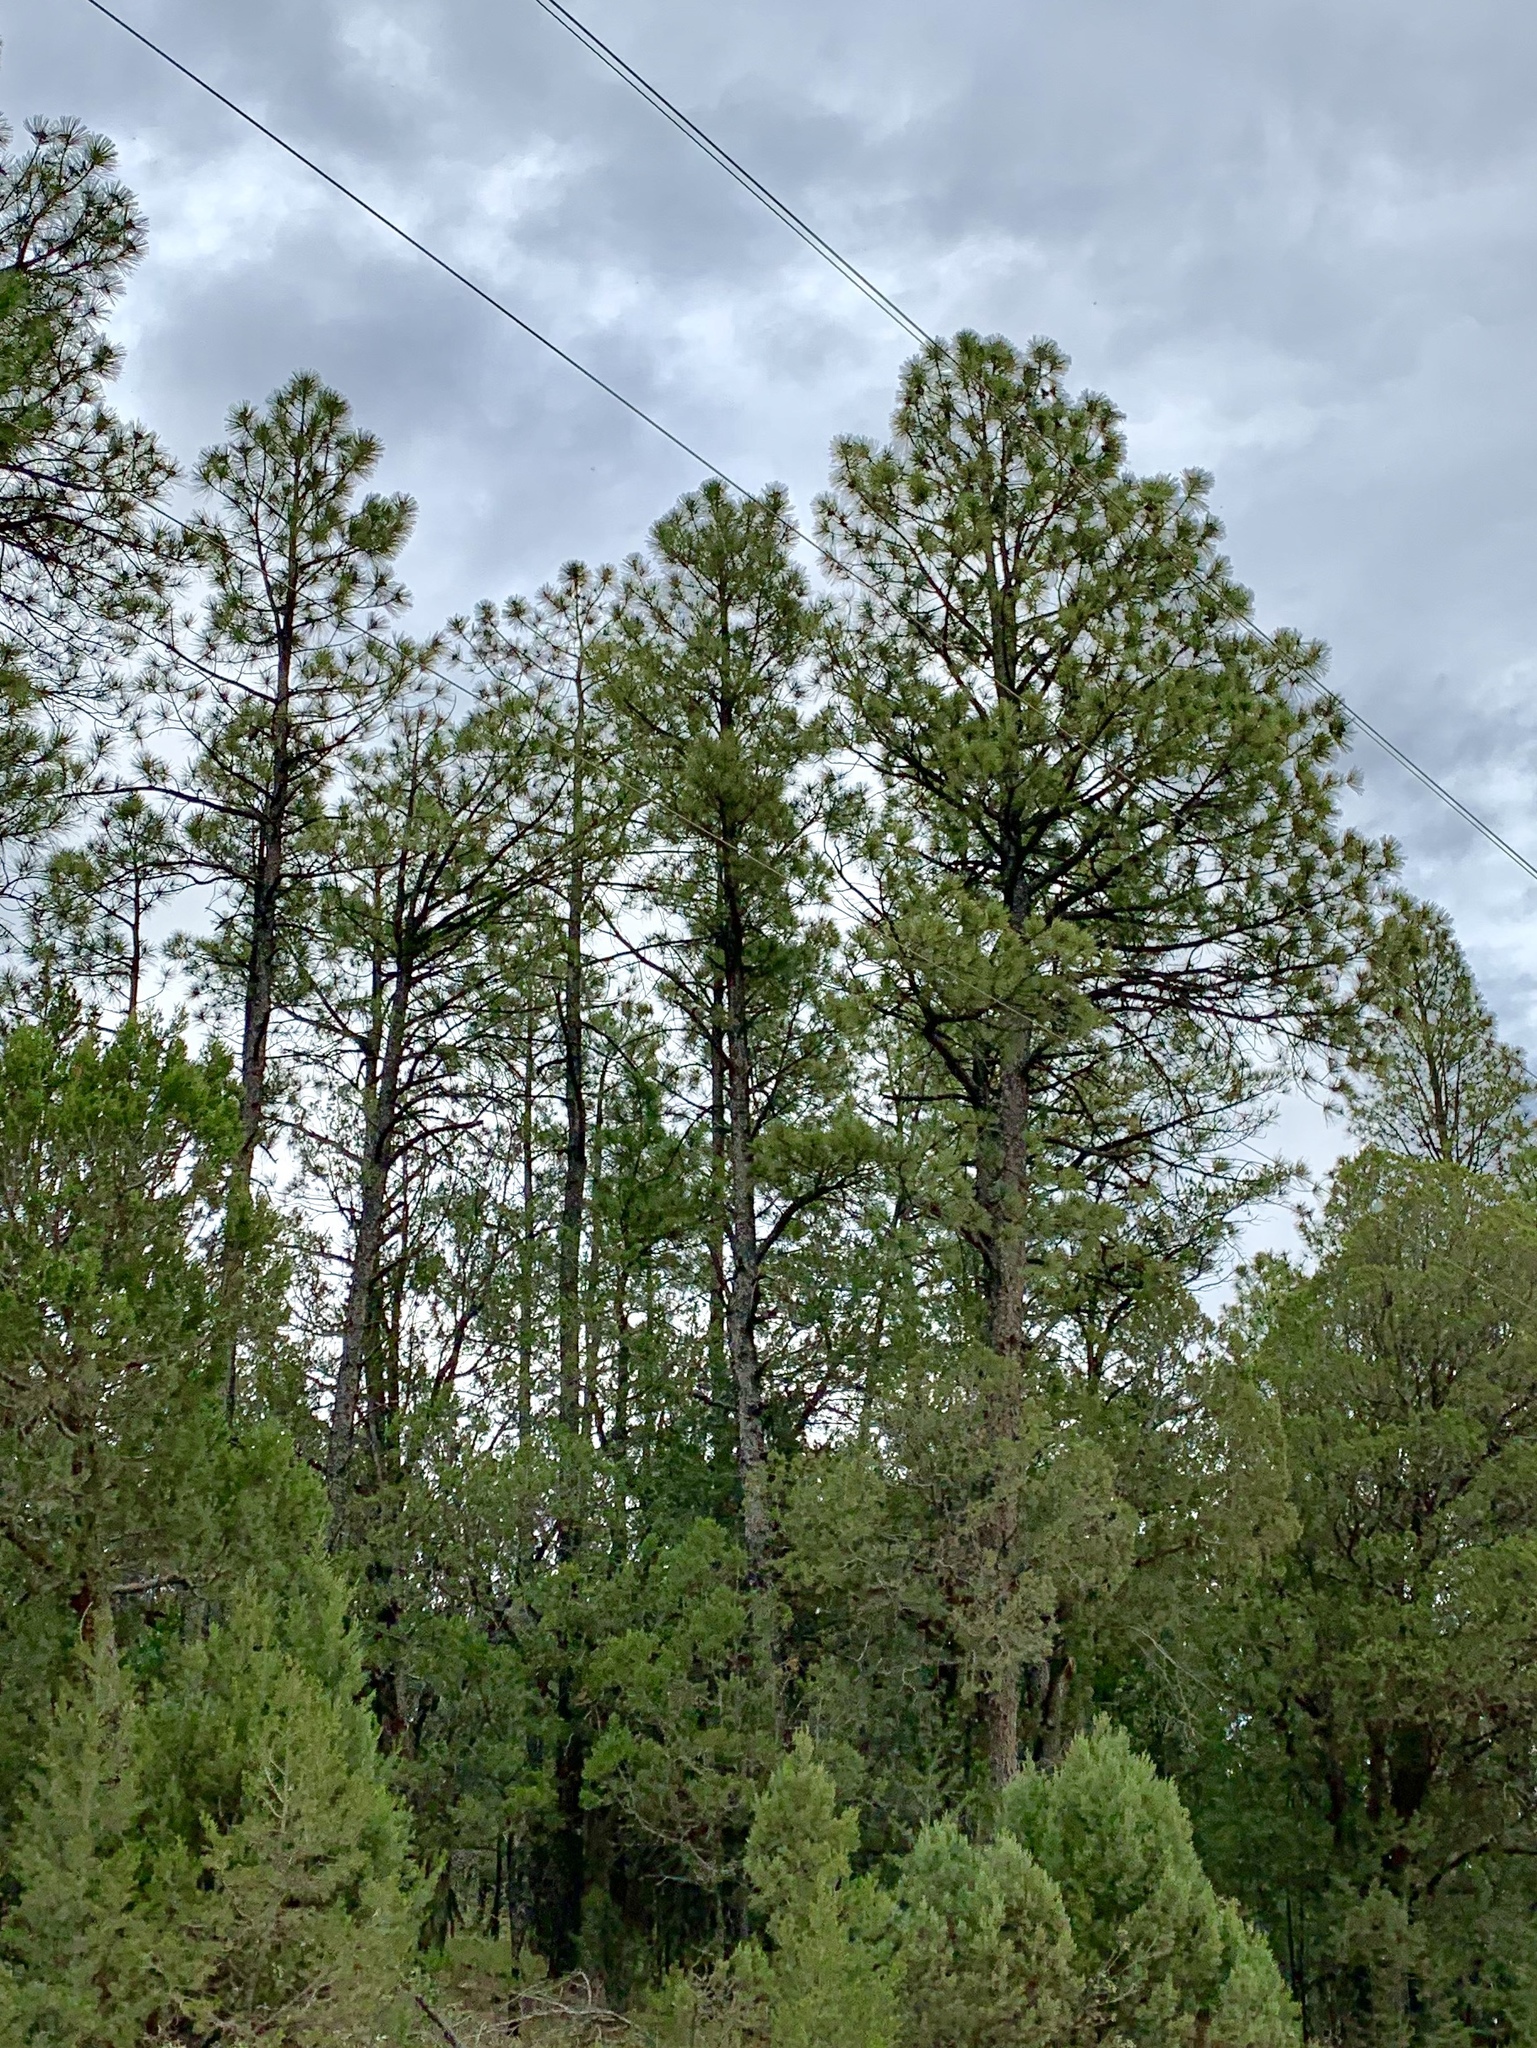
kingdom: Plantae
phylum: Tracheophyta
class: Pinopsida
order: Pinales
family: Pinaceae
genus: Pinus
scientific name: Pinus ponderosa
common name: Western yellow-pine
